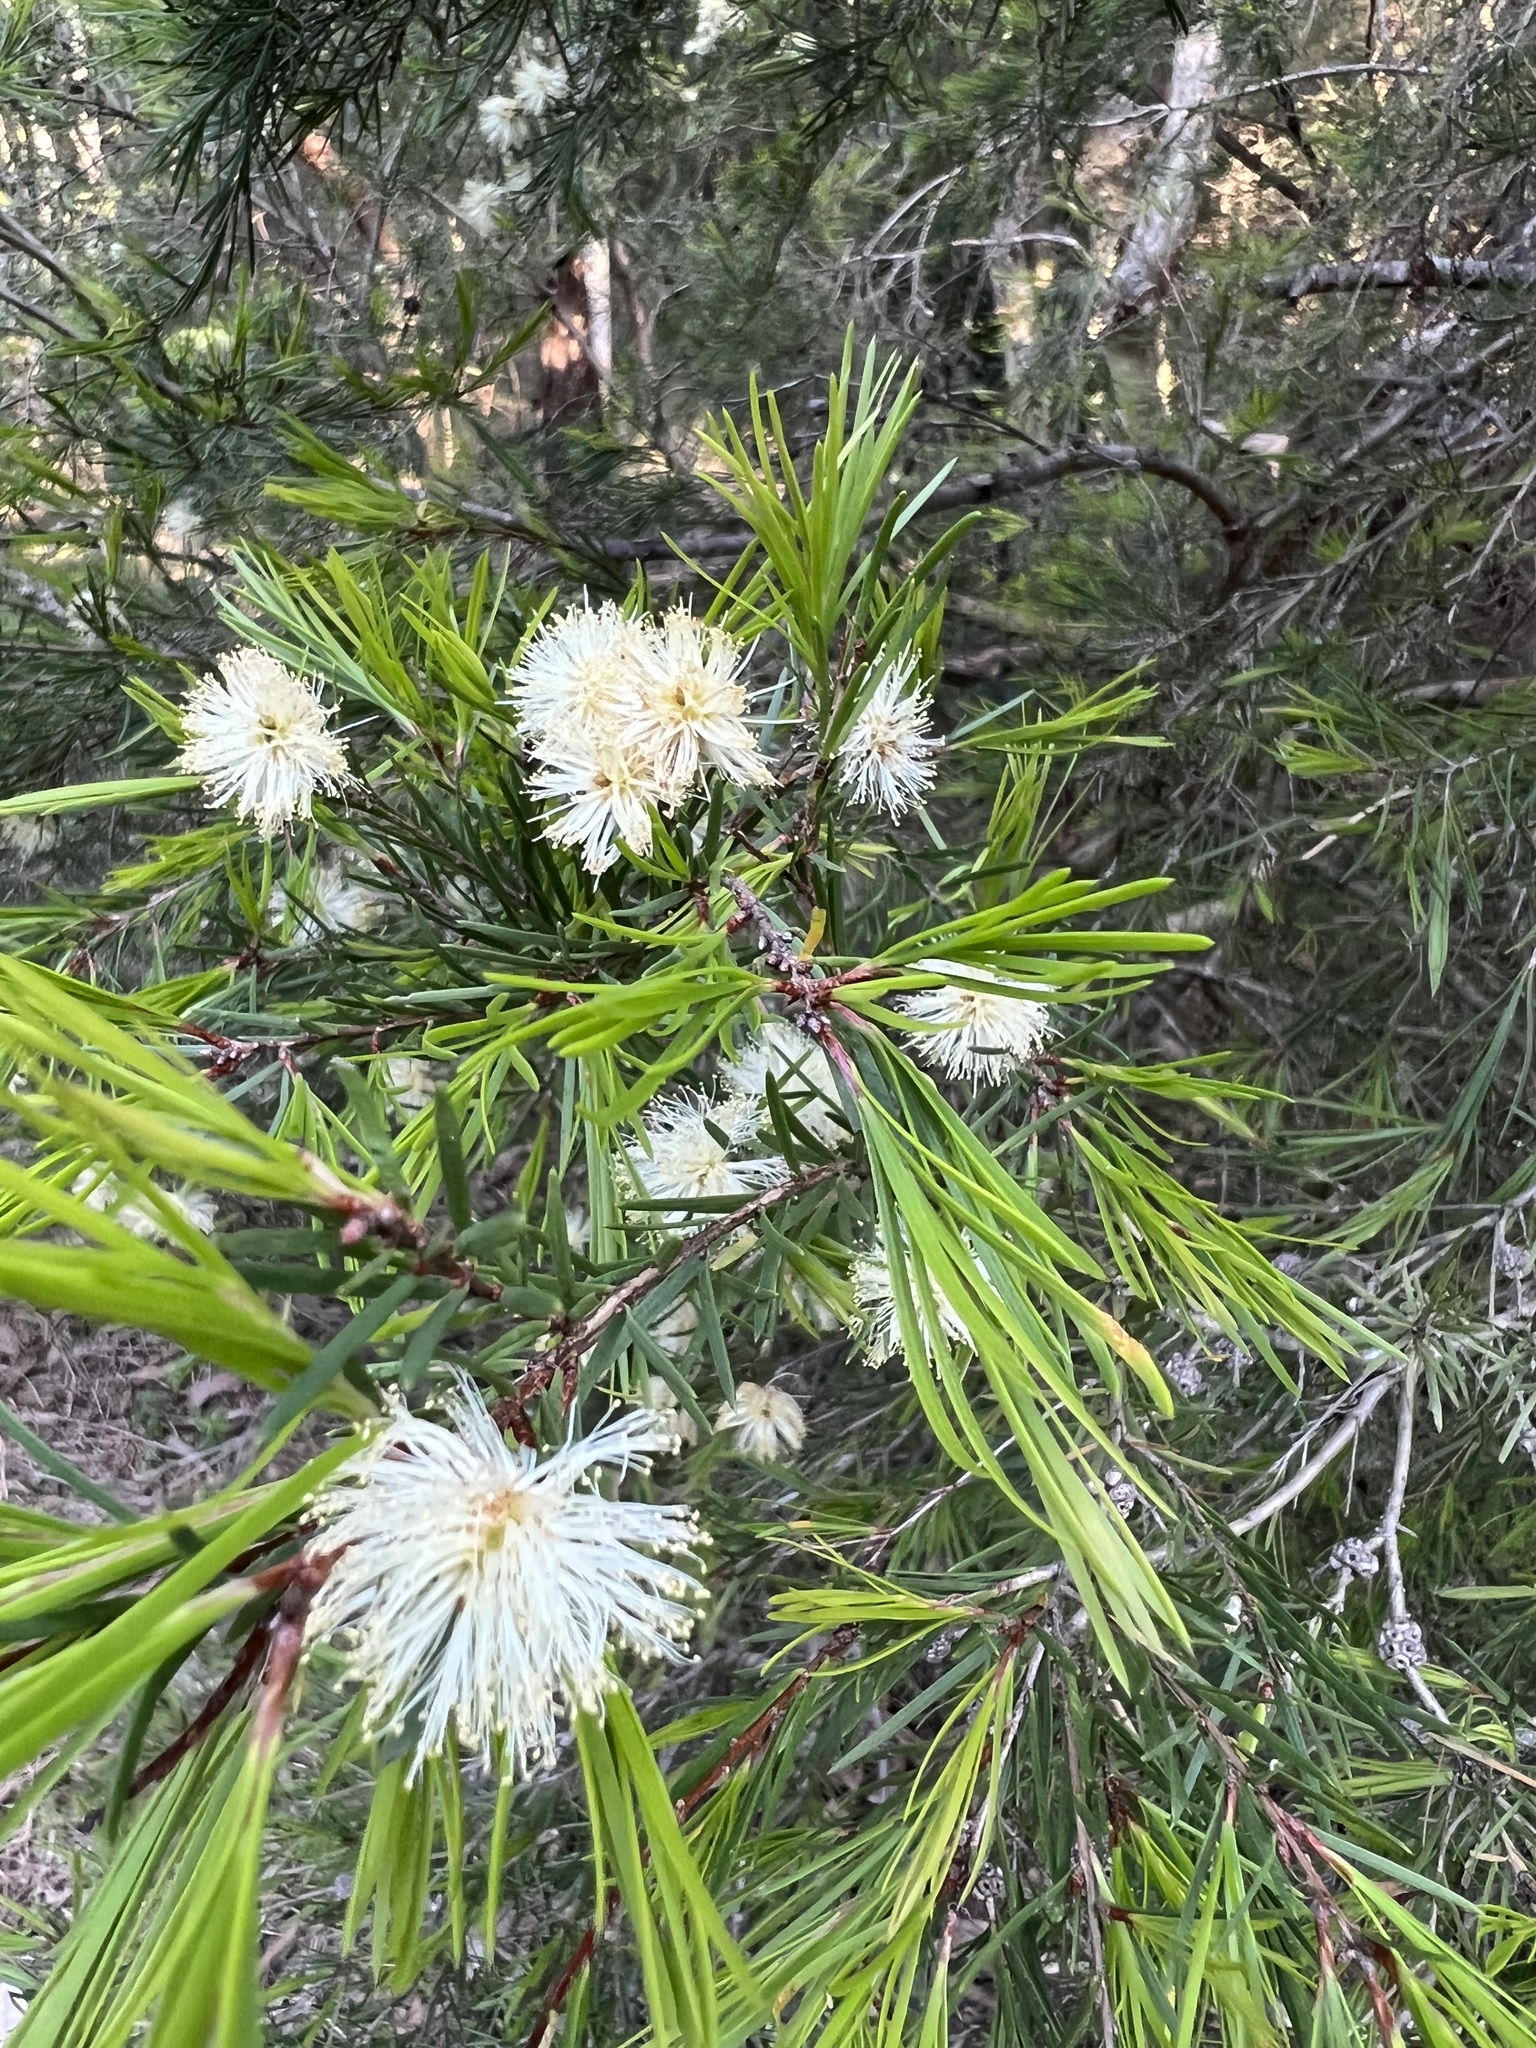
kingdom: Plantae
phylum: Tracheophyta
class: Magnoliopsida
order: Myrtales
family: Myrtaceae
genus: Melaleuca
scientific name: Melaleuca nodosa
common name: Prickly-leaf paperbark
